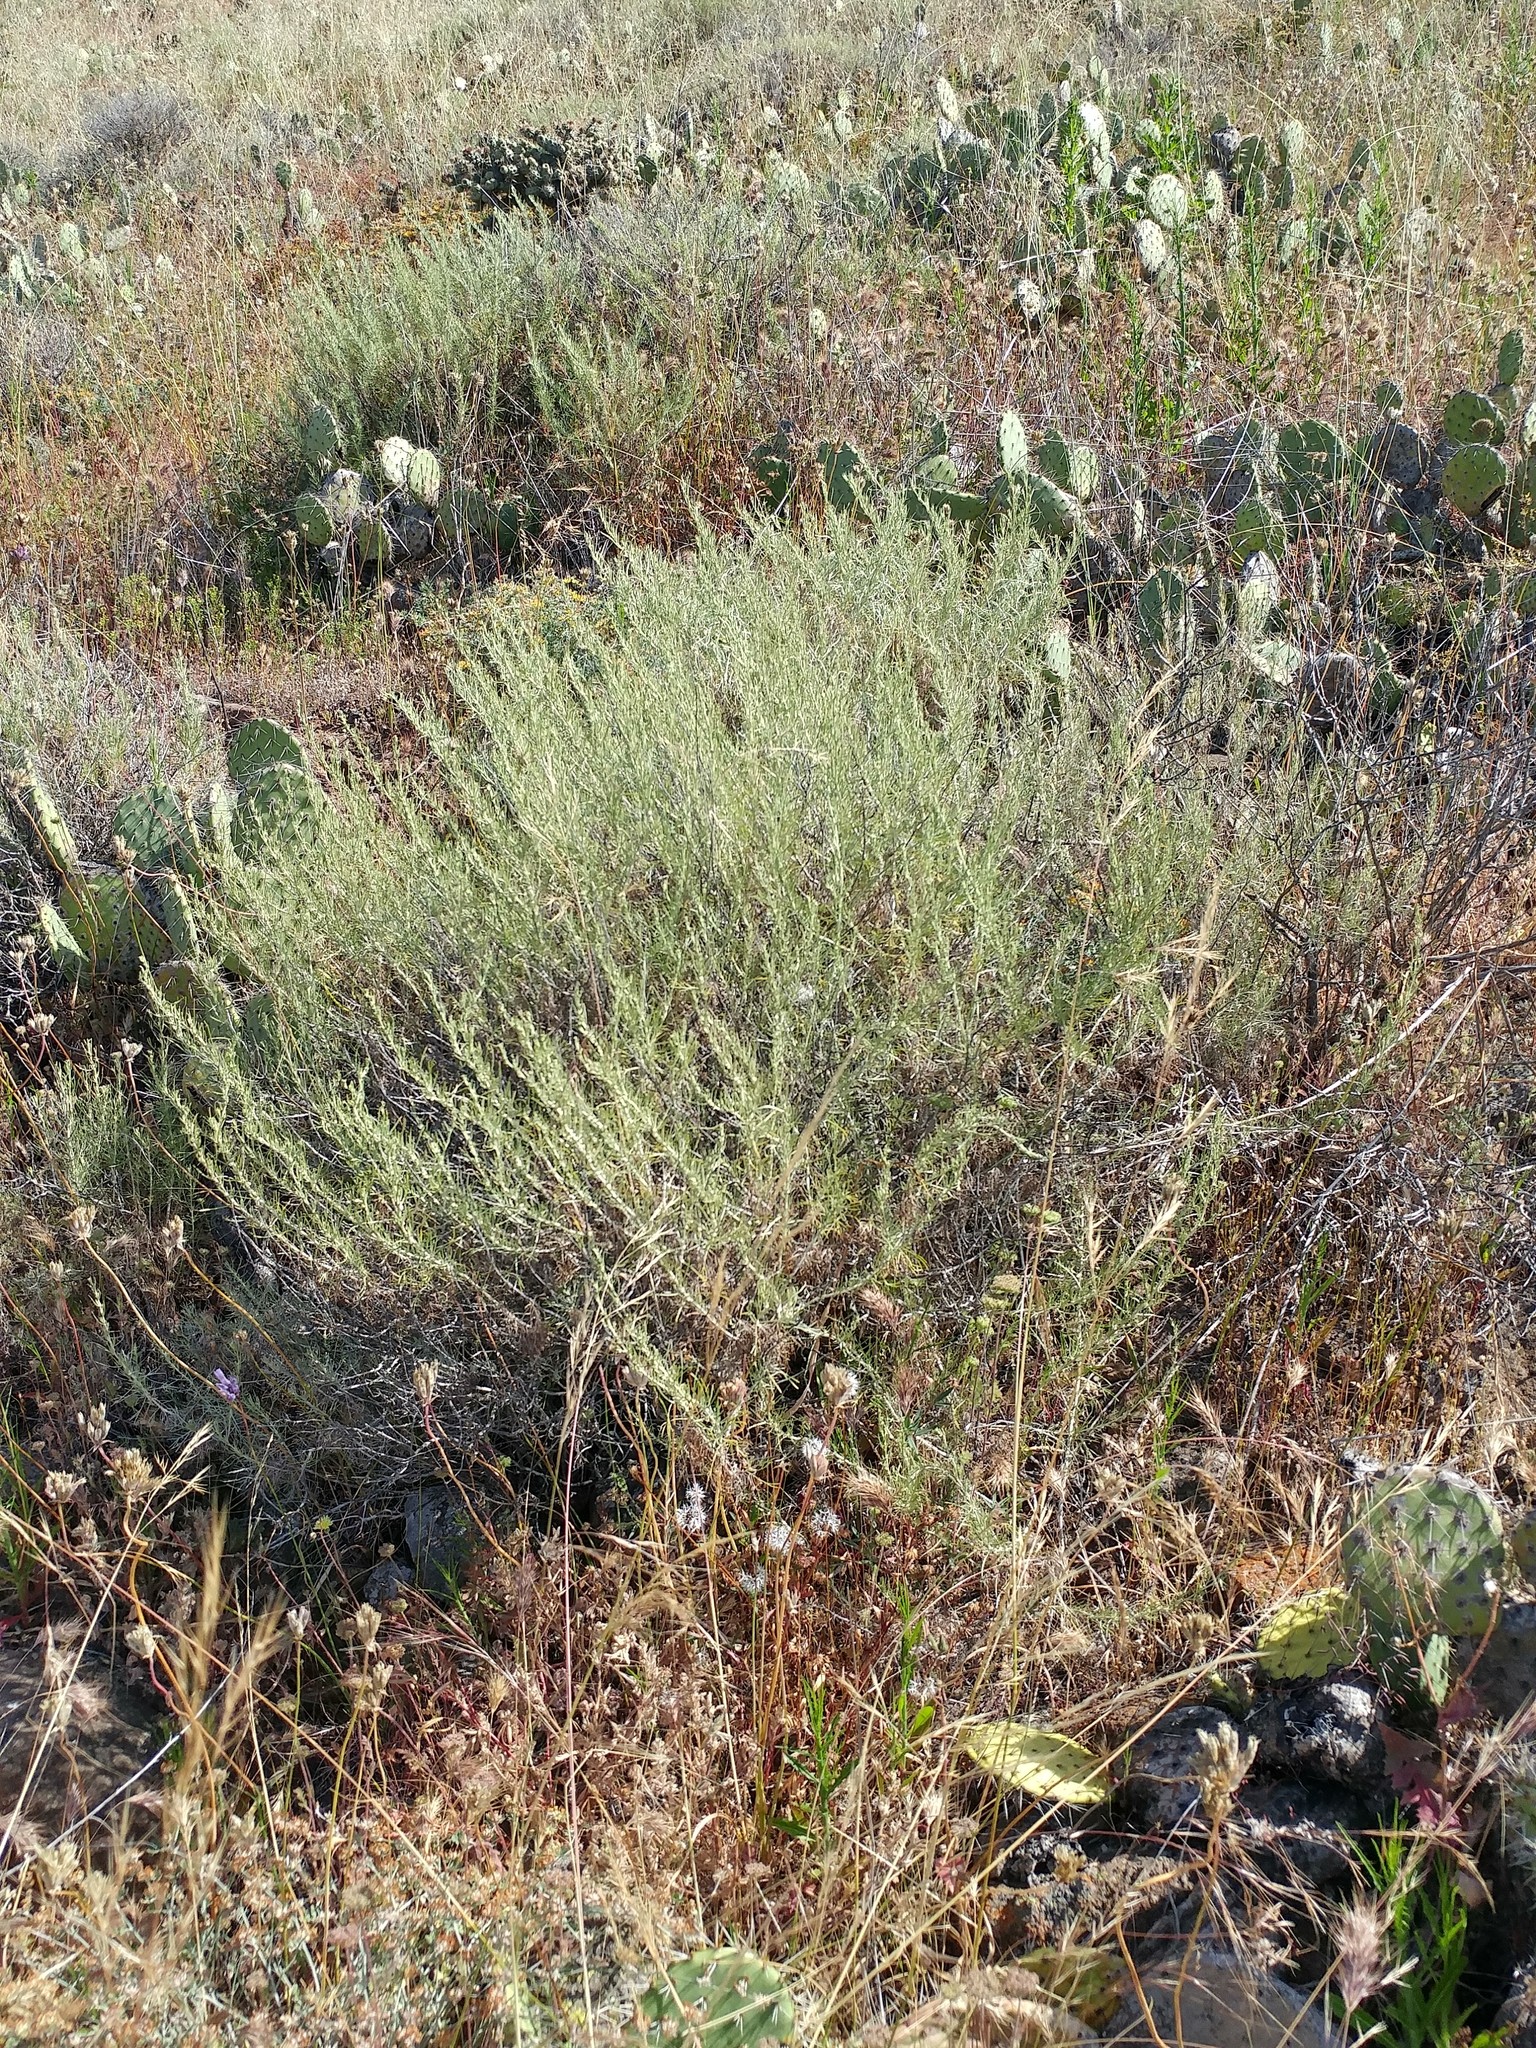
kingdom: Plantae
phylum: Tracheophyta
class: Magnoliopsida
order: Asterales
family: Asteraceae
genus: Artemisia
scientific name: Artemisia californica
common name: California sagebrush
